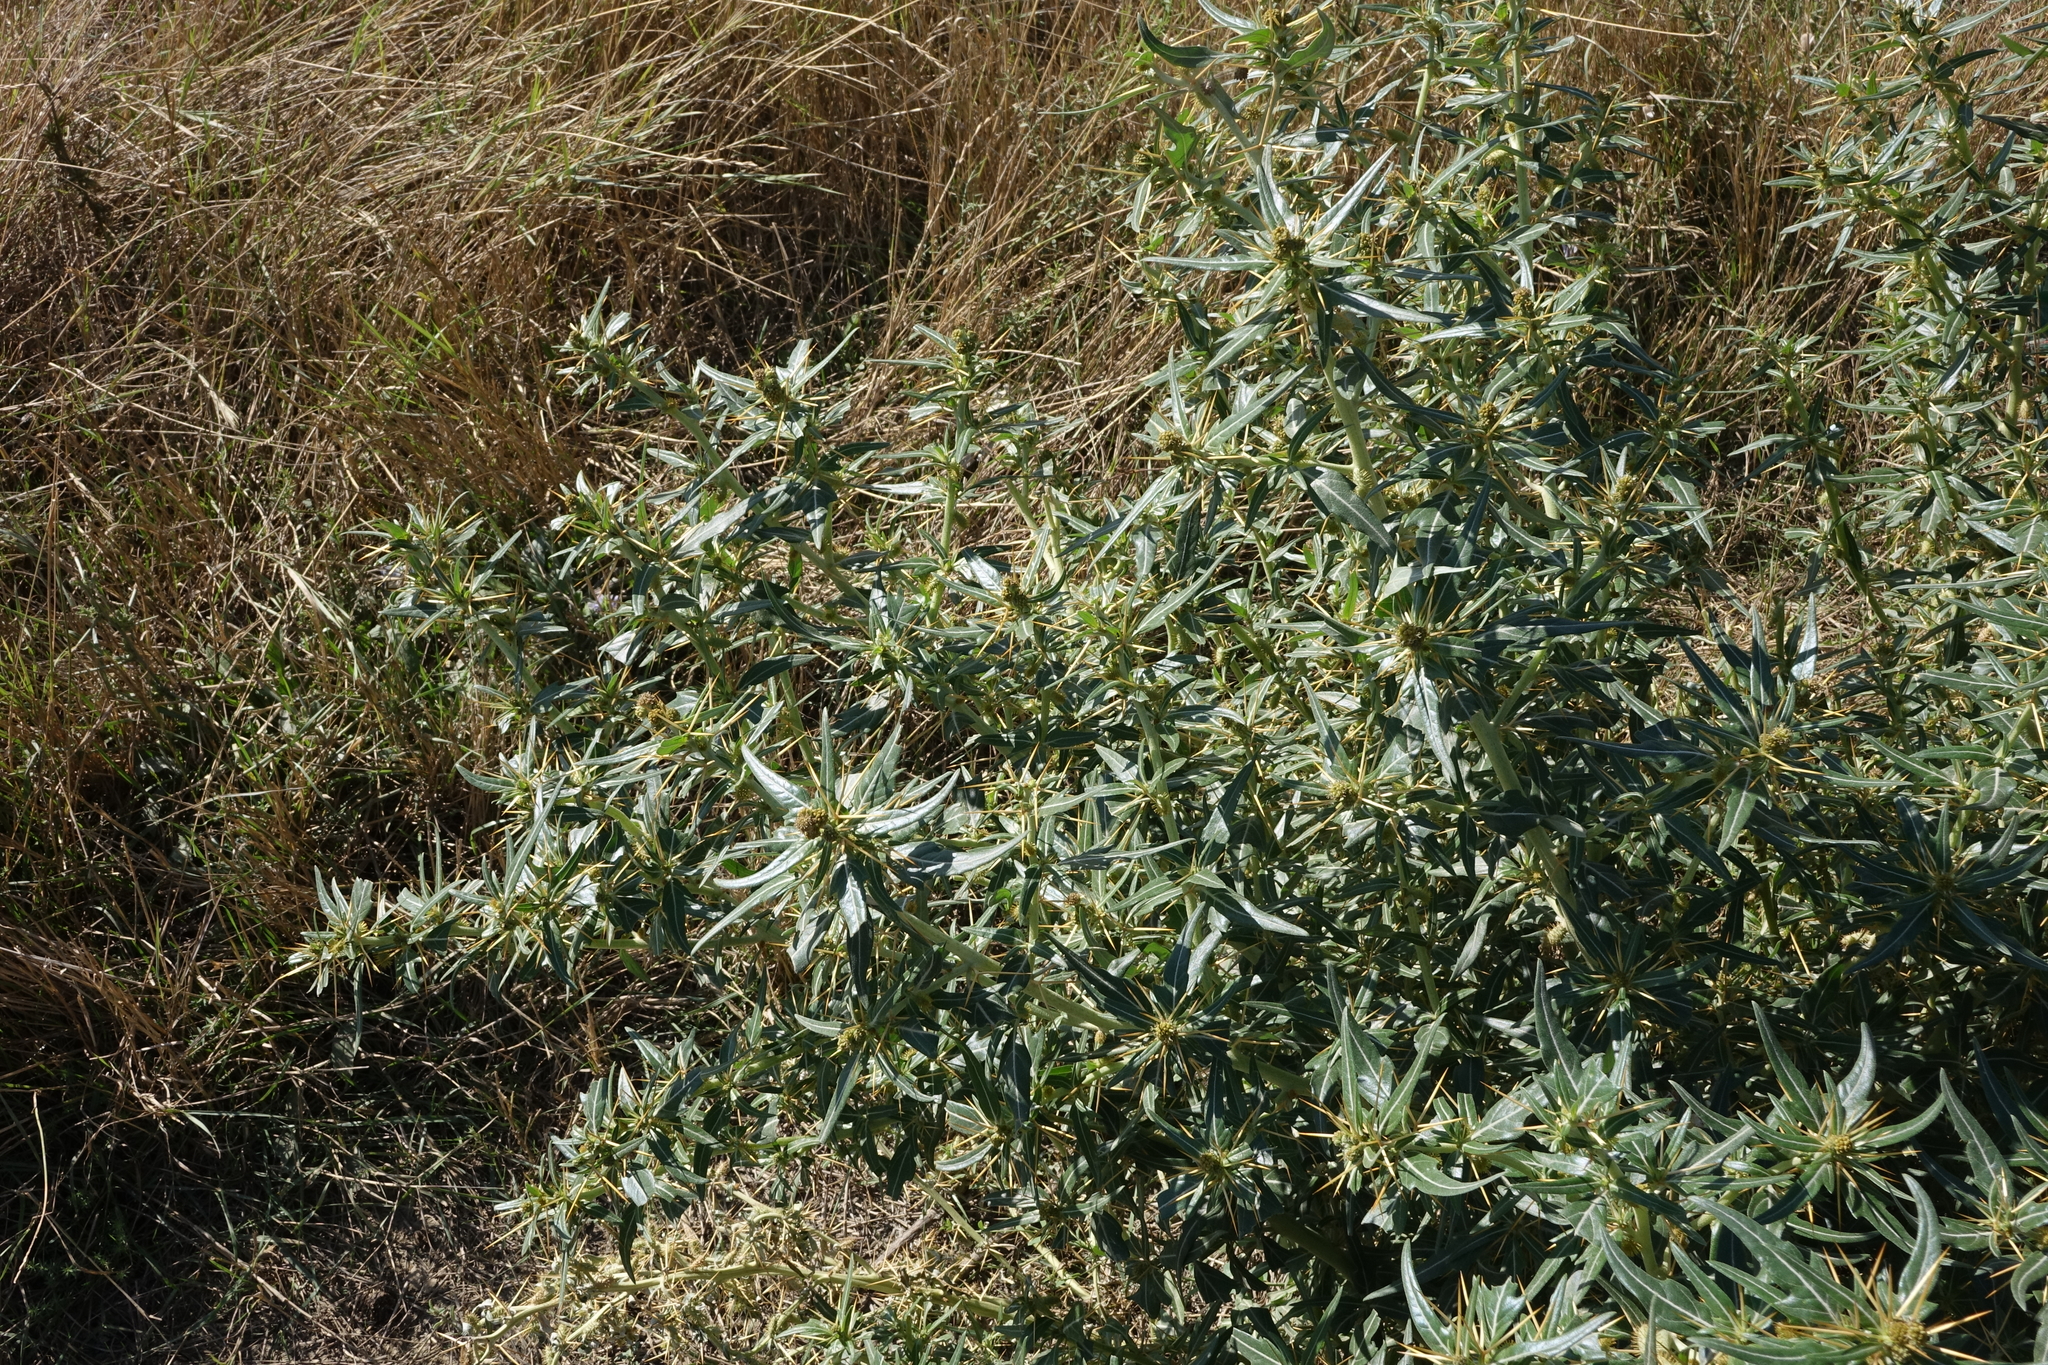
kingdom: Plantae
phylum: Tracheophyta
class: Magnoliopsida
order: Asterales
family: Asteraceae
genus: Xanthium
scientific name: Xanthium spinosum
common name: Spiny cocklebur
